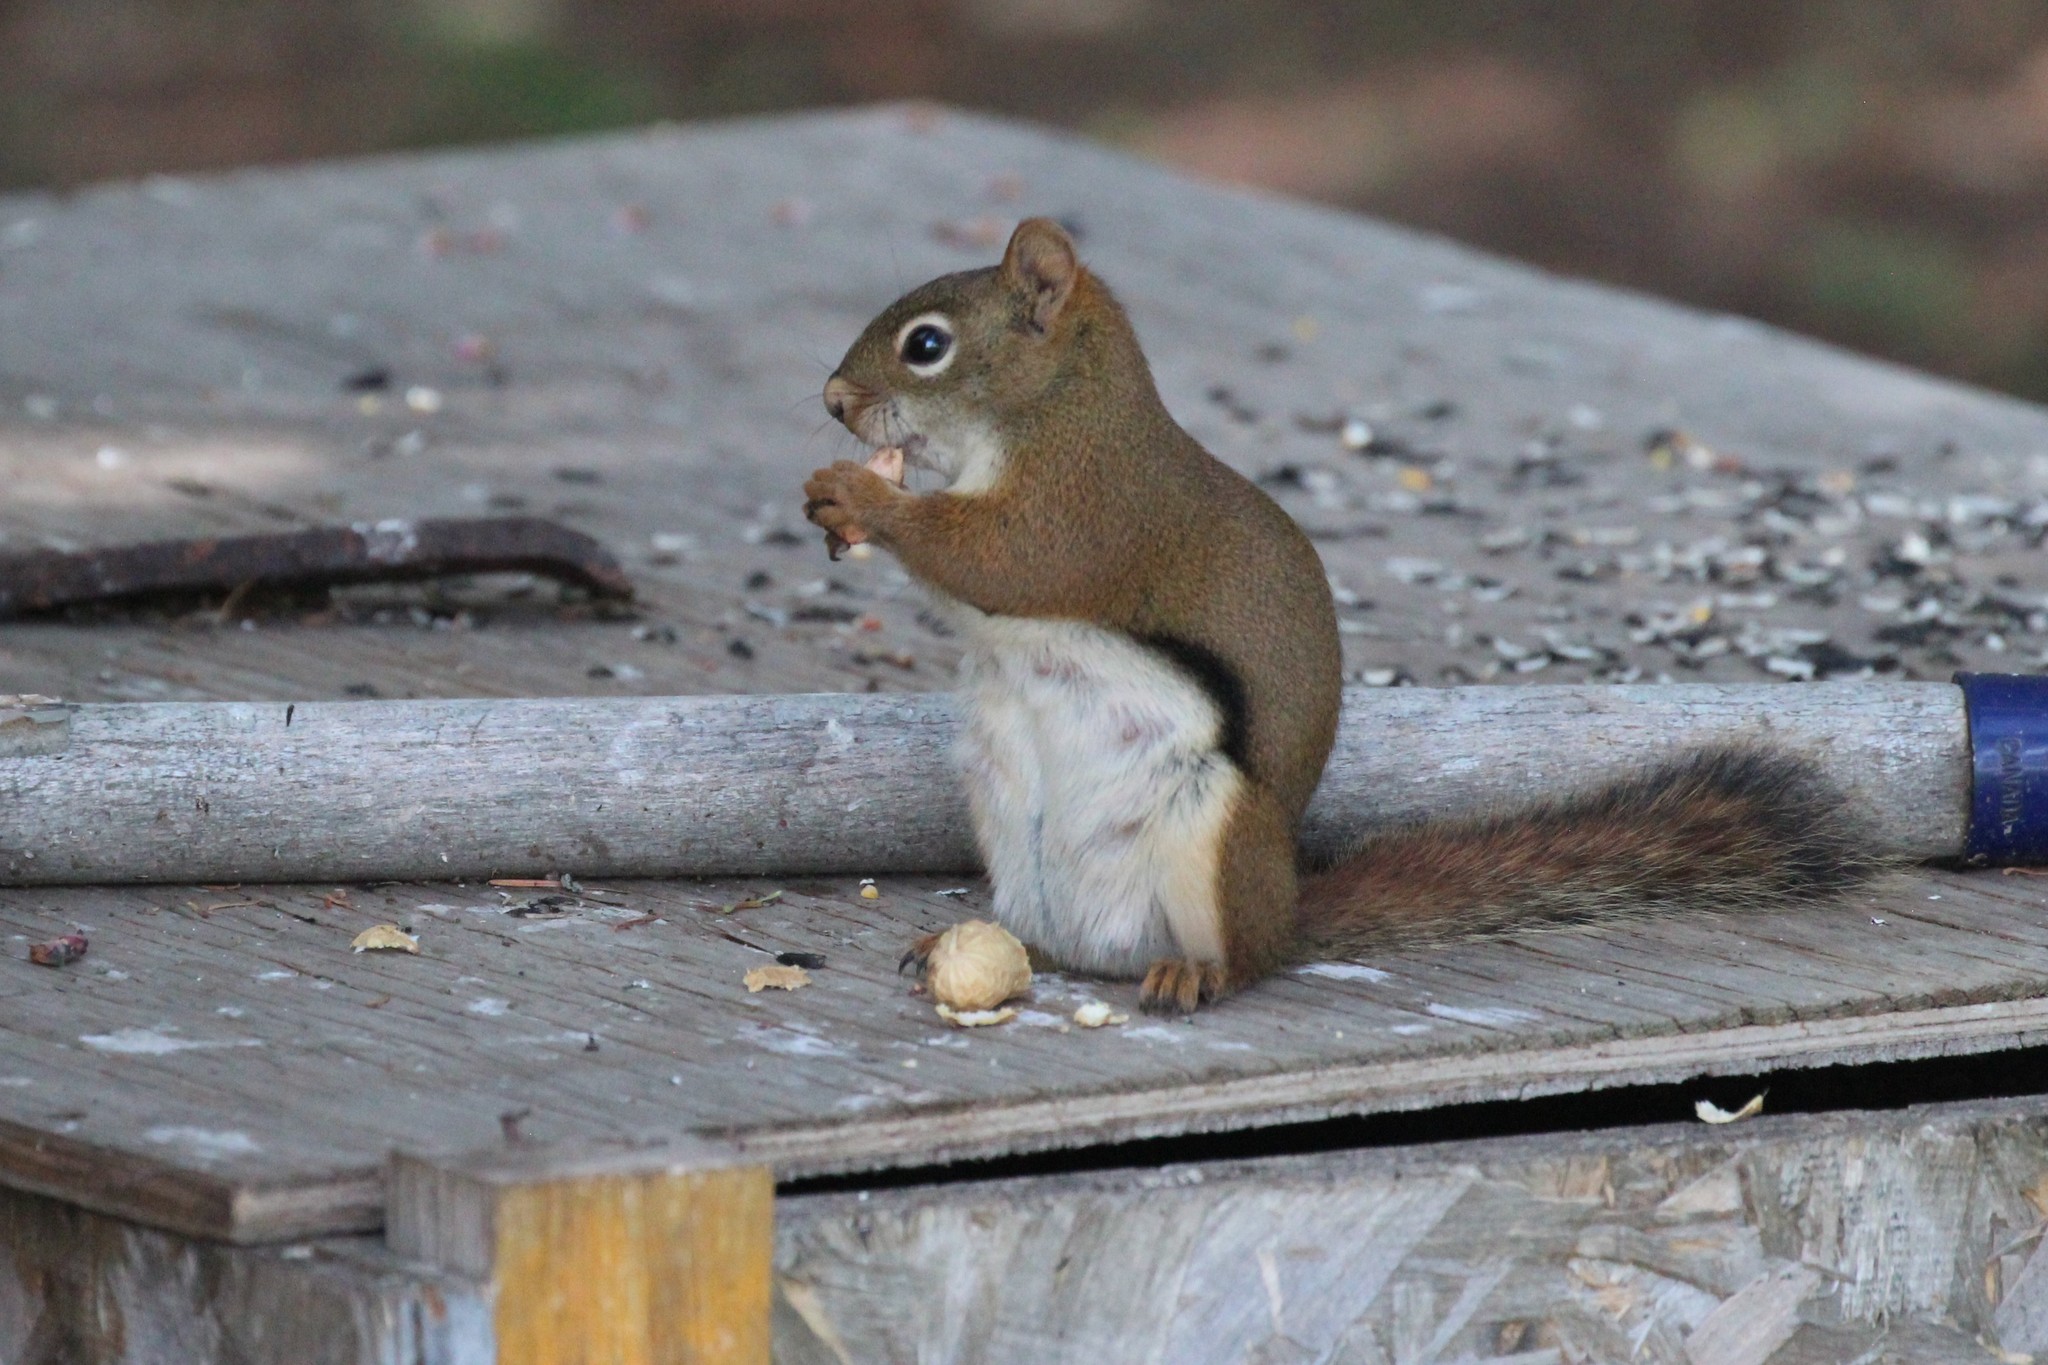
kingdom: Animalia
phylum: Chordata
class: Mammalia
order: Rodentia
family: Sciuridae
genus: Tamiasciurus
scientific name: Tamiasciurus hudsonicus
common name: Red squirrel
